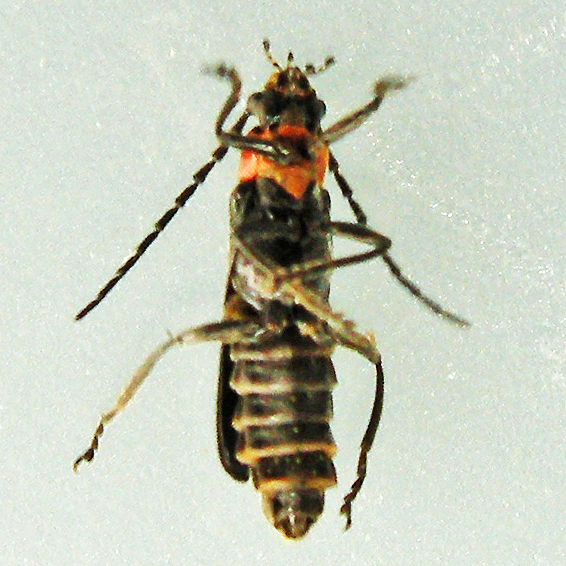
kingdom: Animalia
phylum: Arthropoda
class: Insecta
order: Coleoptera
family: Cantharidae
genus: Cantharis
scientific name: Cantharis tuberculata
